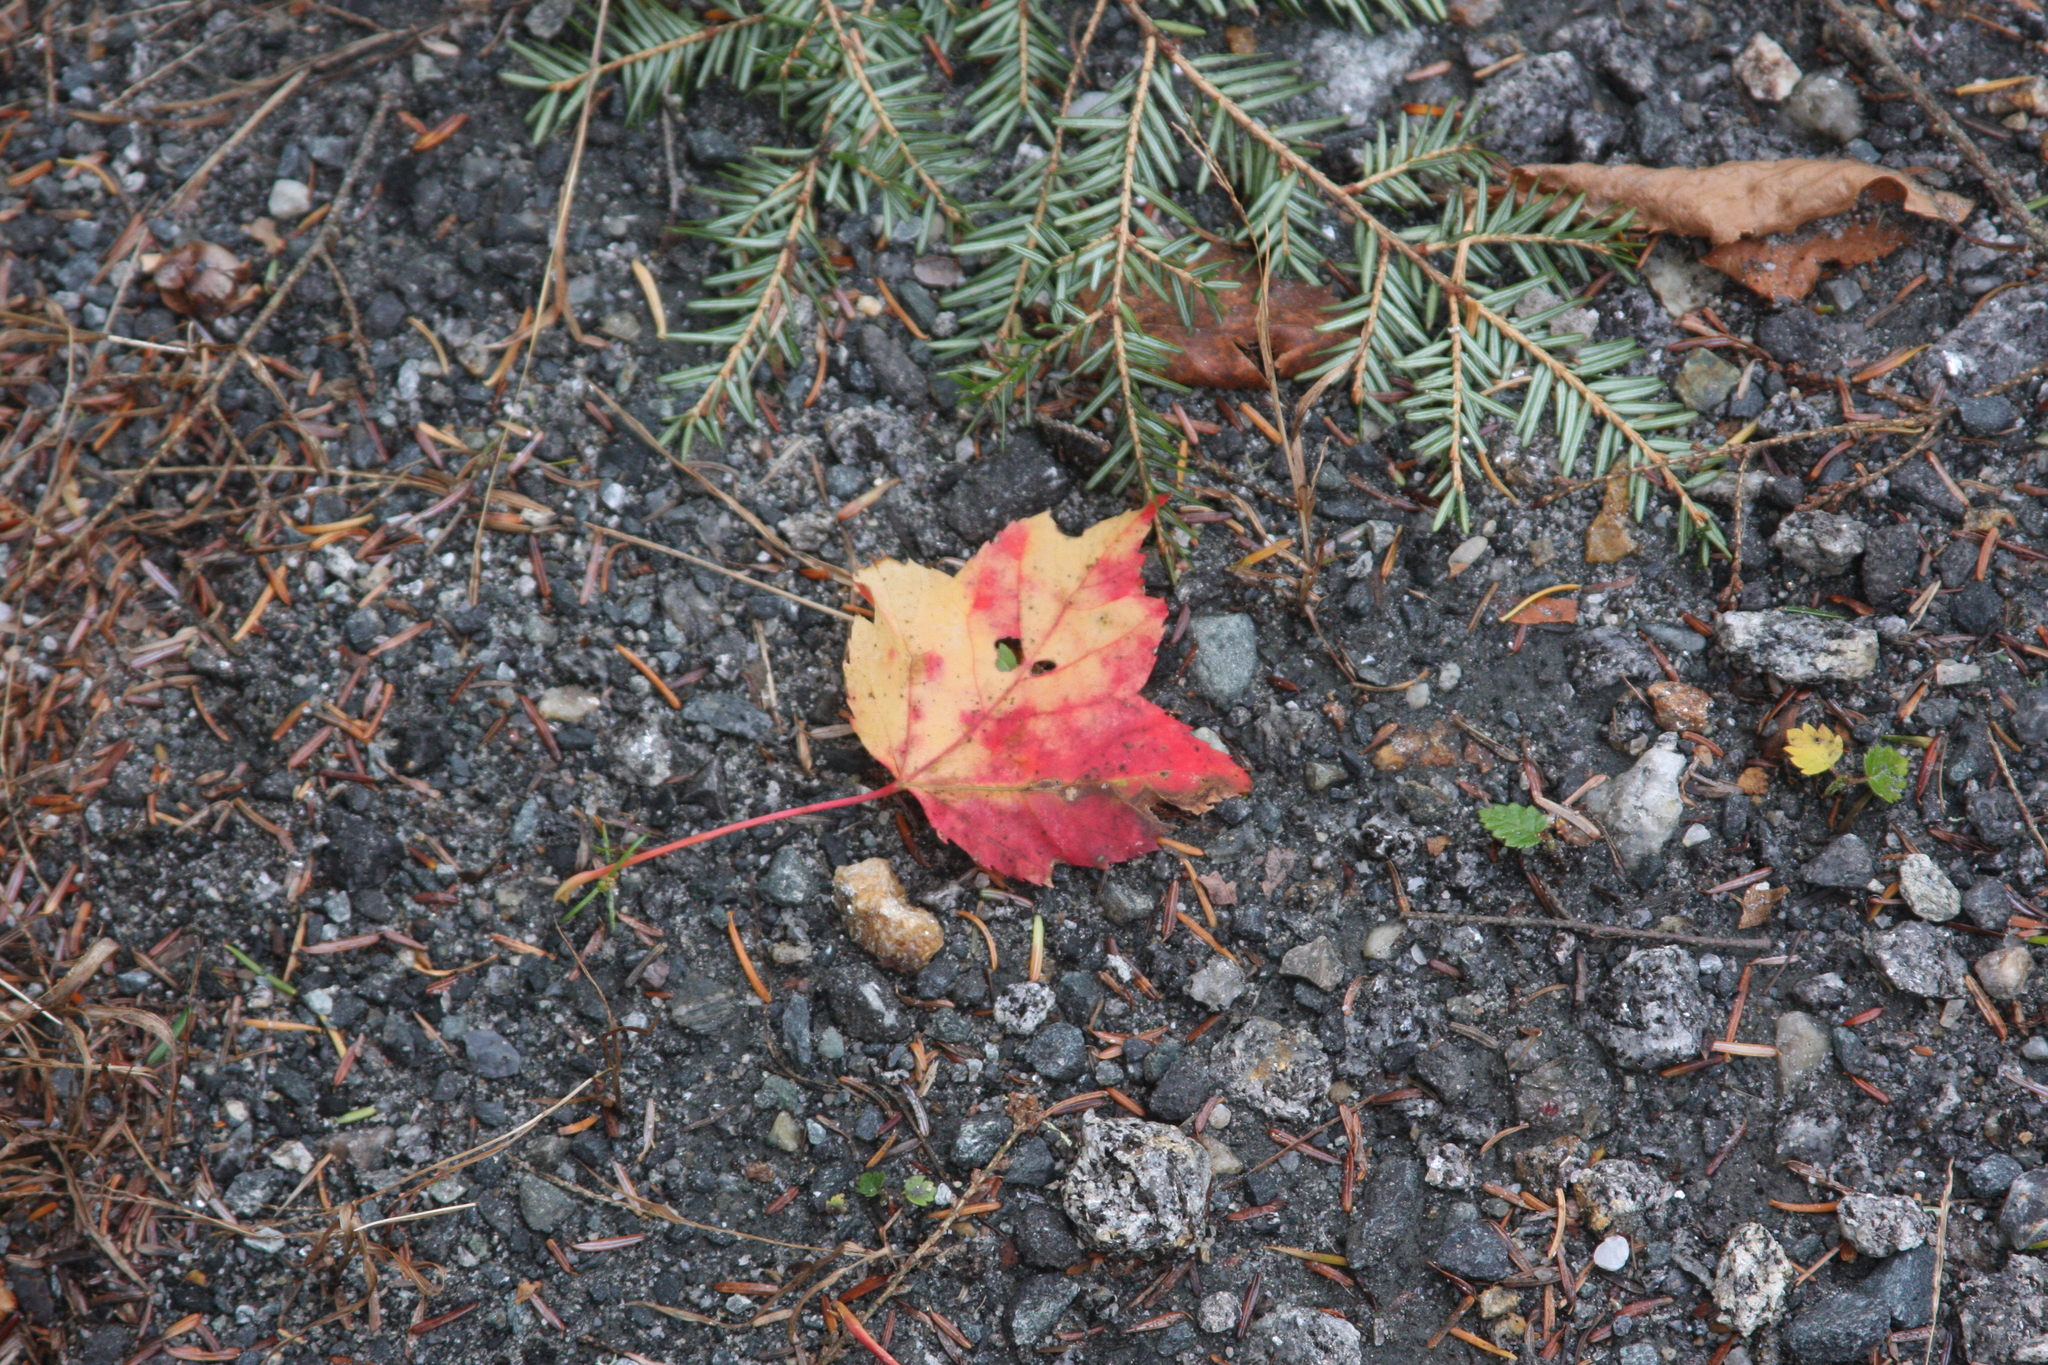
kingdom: Plantae
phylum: Tracheophyta
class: Magnoliopsida
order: Sapindales
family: Sapindaceae
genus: Acer
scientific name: Acer rubrum
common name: Red maple
